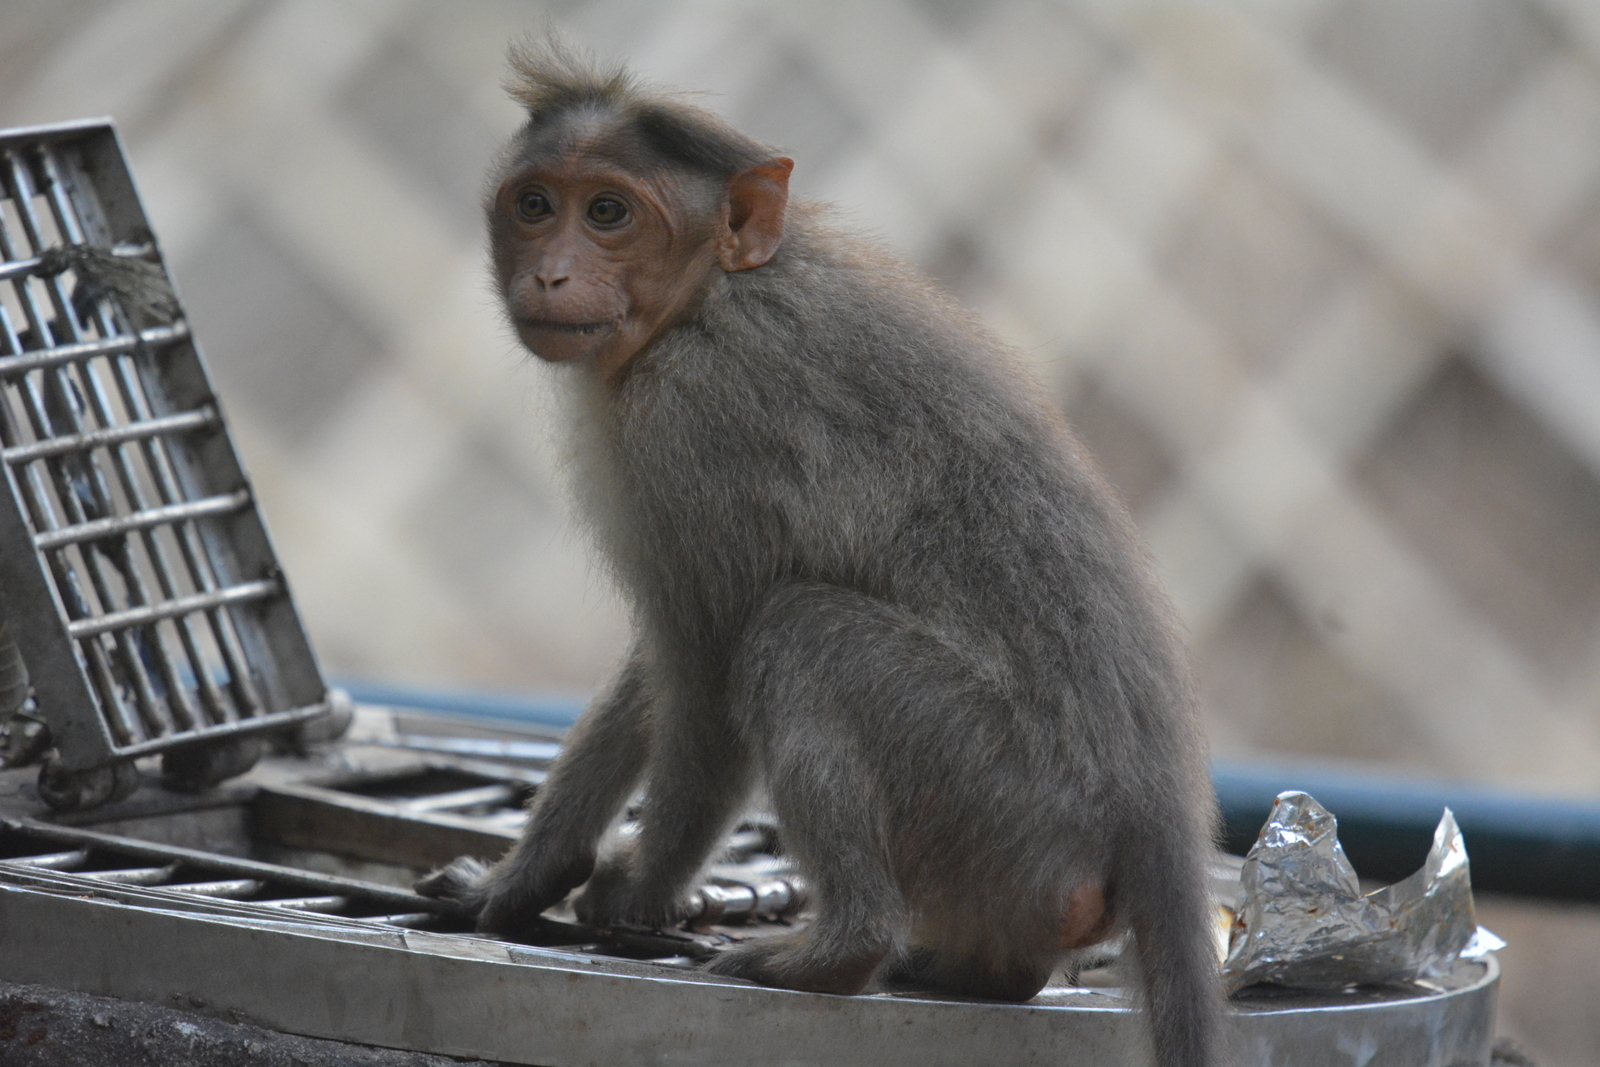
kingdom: Animalia
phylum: Chordata
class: Mammalia
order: Primates
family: Cercopithecidae
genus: Macaca
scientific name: Macaca radiata
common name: Bonnet macaque
